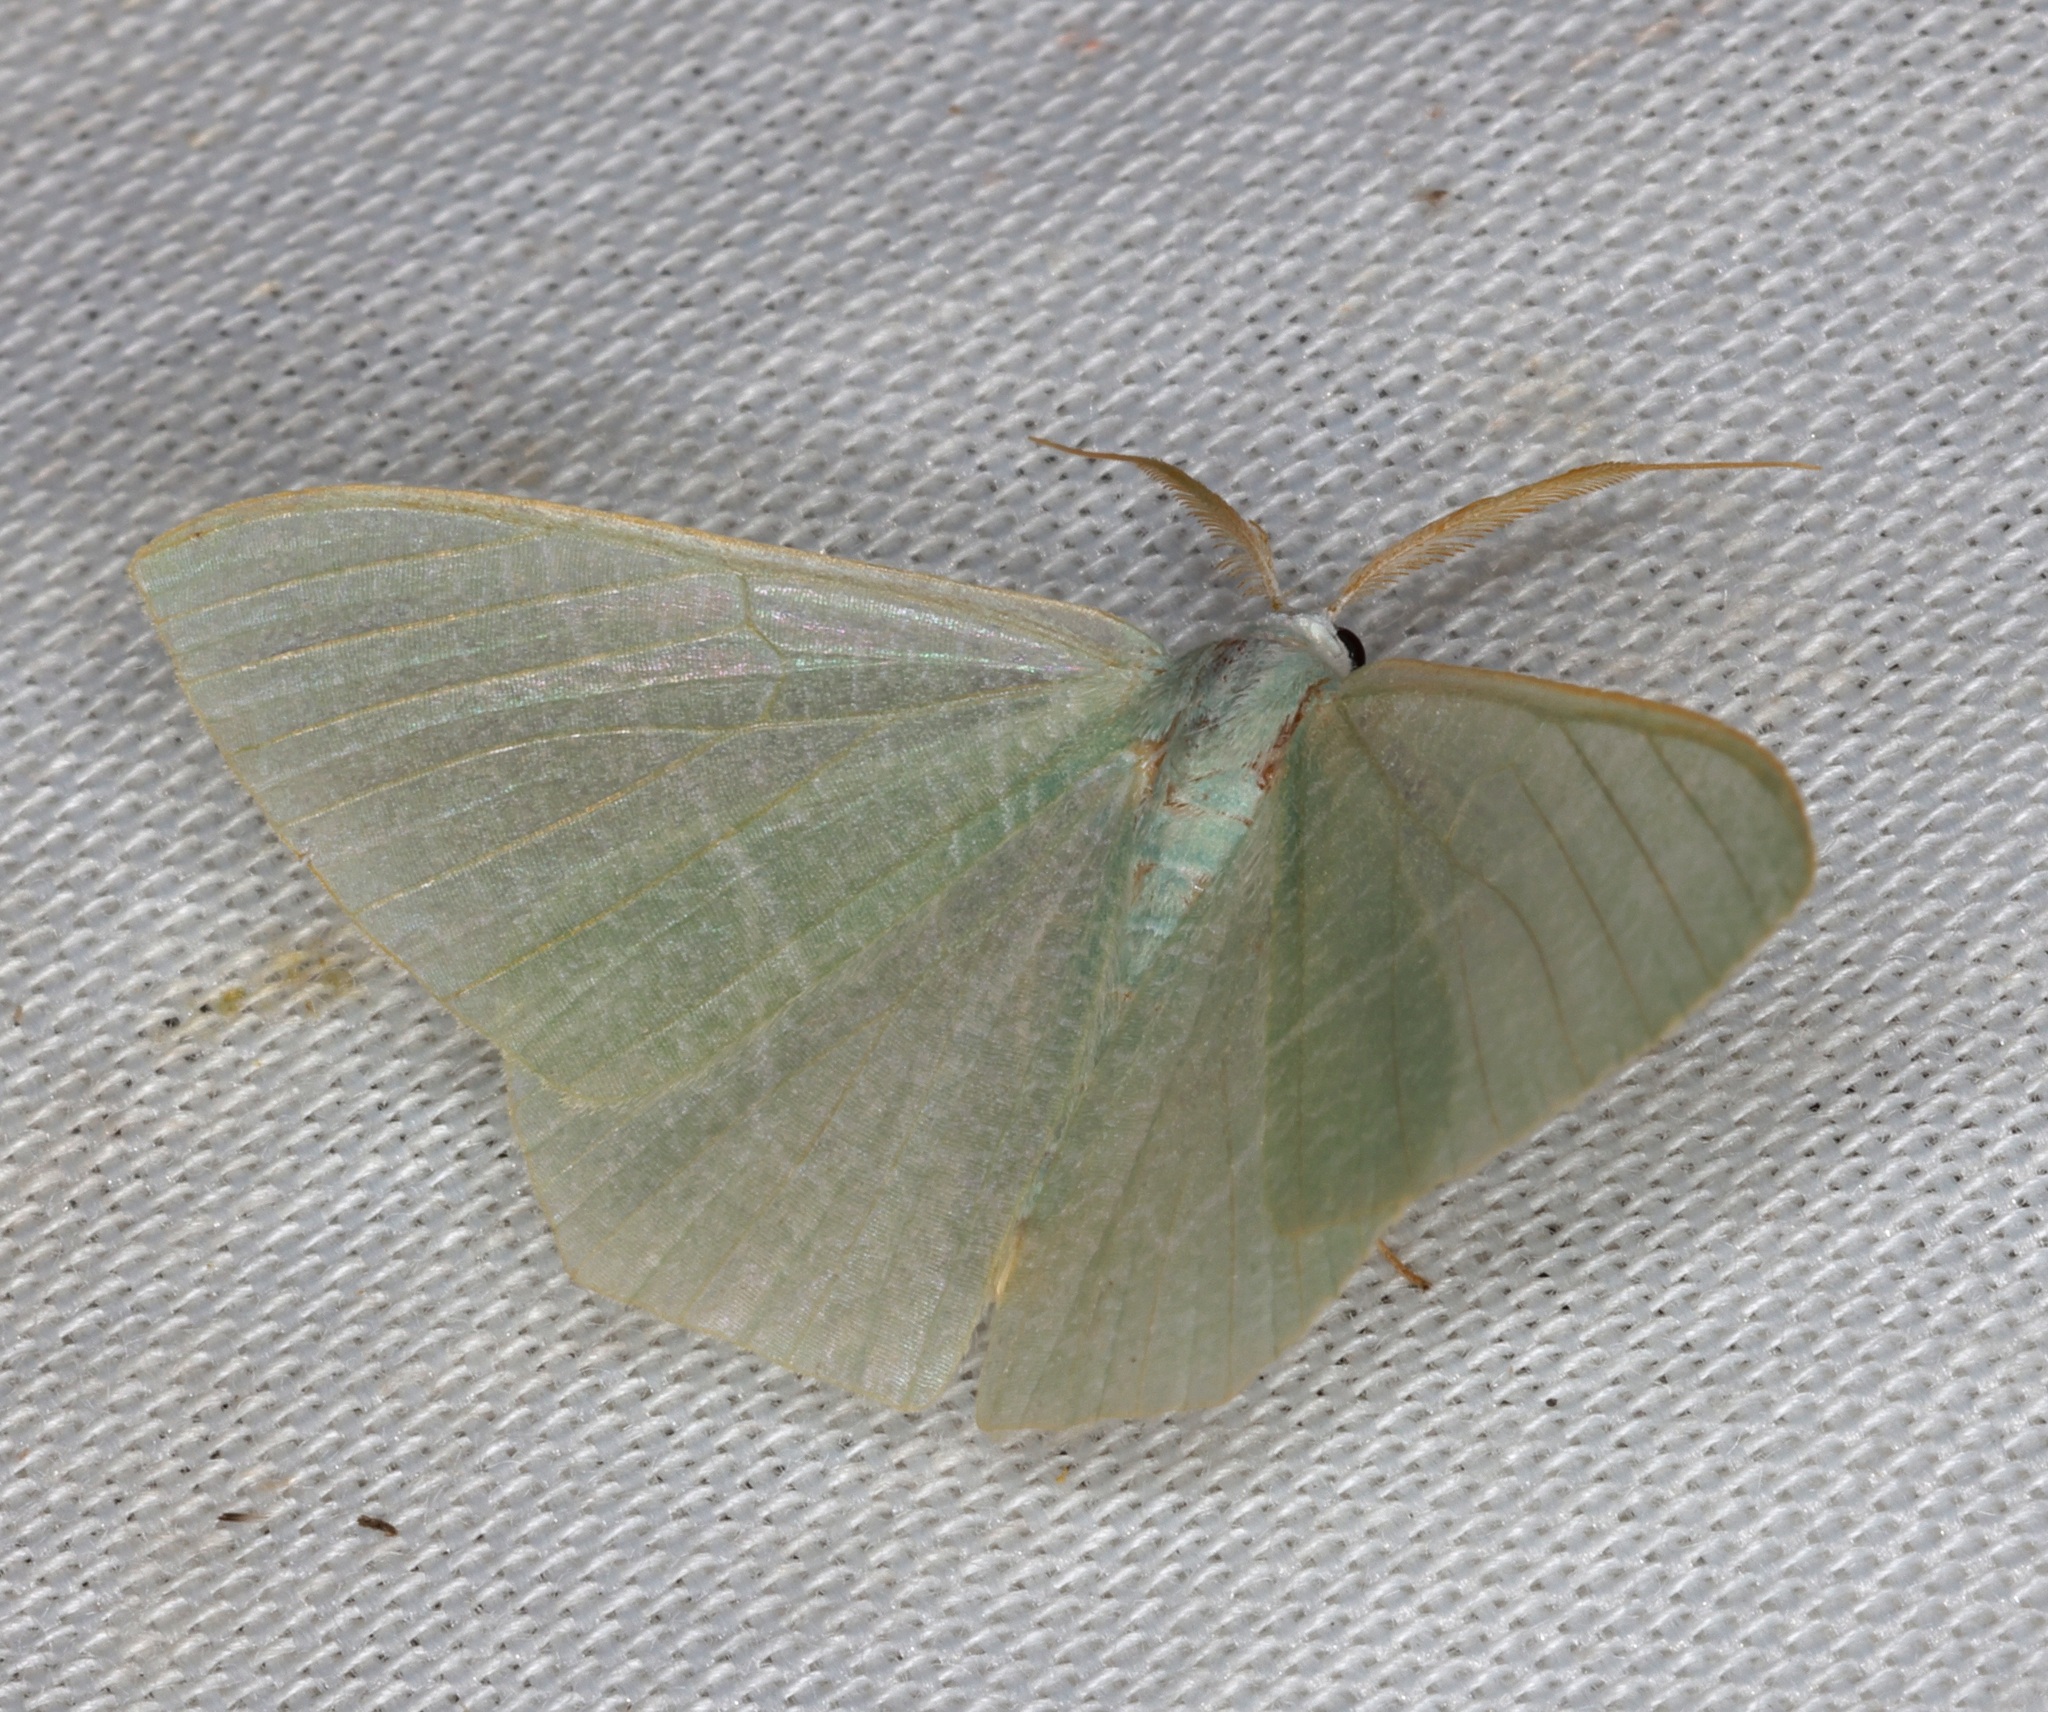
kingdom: Animalia
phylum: Arthropoda
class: Insecta
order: Lepidoptera
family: Geometridae
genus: Pelagodes
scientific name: Pelagodes antiquadraria
